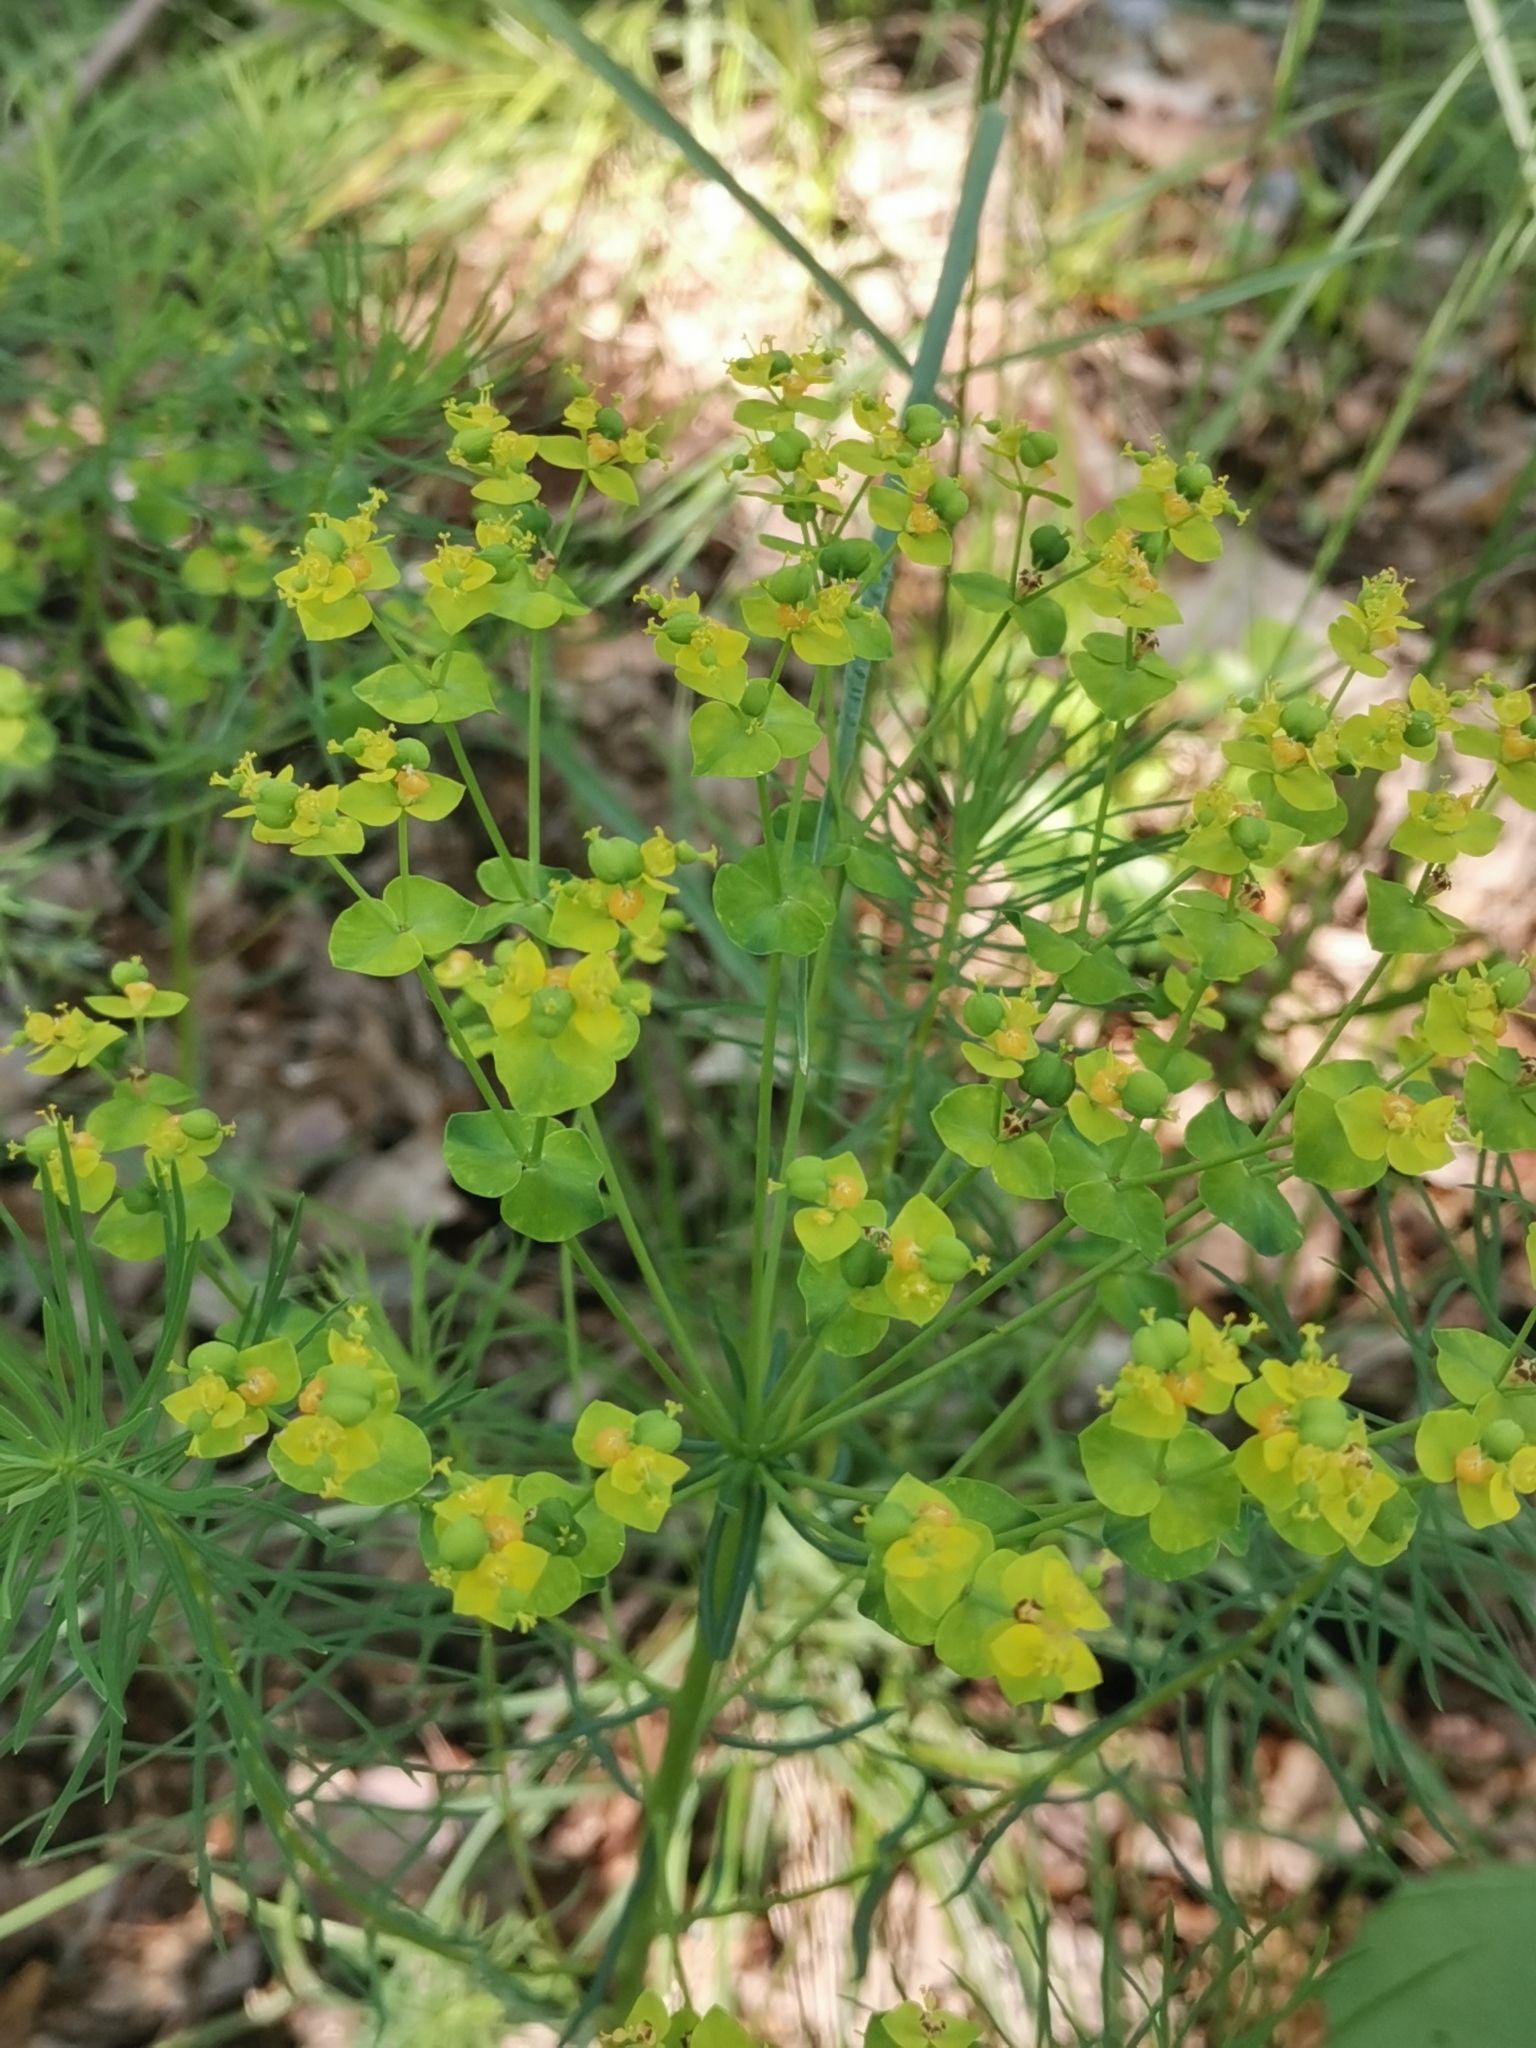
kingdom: Plantae
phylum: Tracheophyta
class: Magnoliopsida
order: Malpighiales
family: Euphorbiaceae
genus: Euphorbia
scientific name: Euphorbia cyparissias
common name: Cypress spurge
